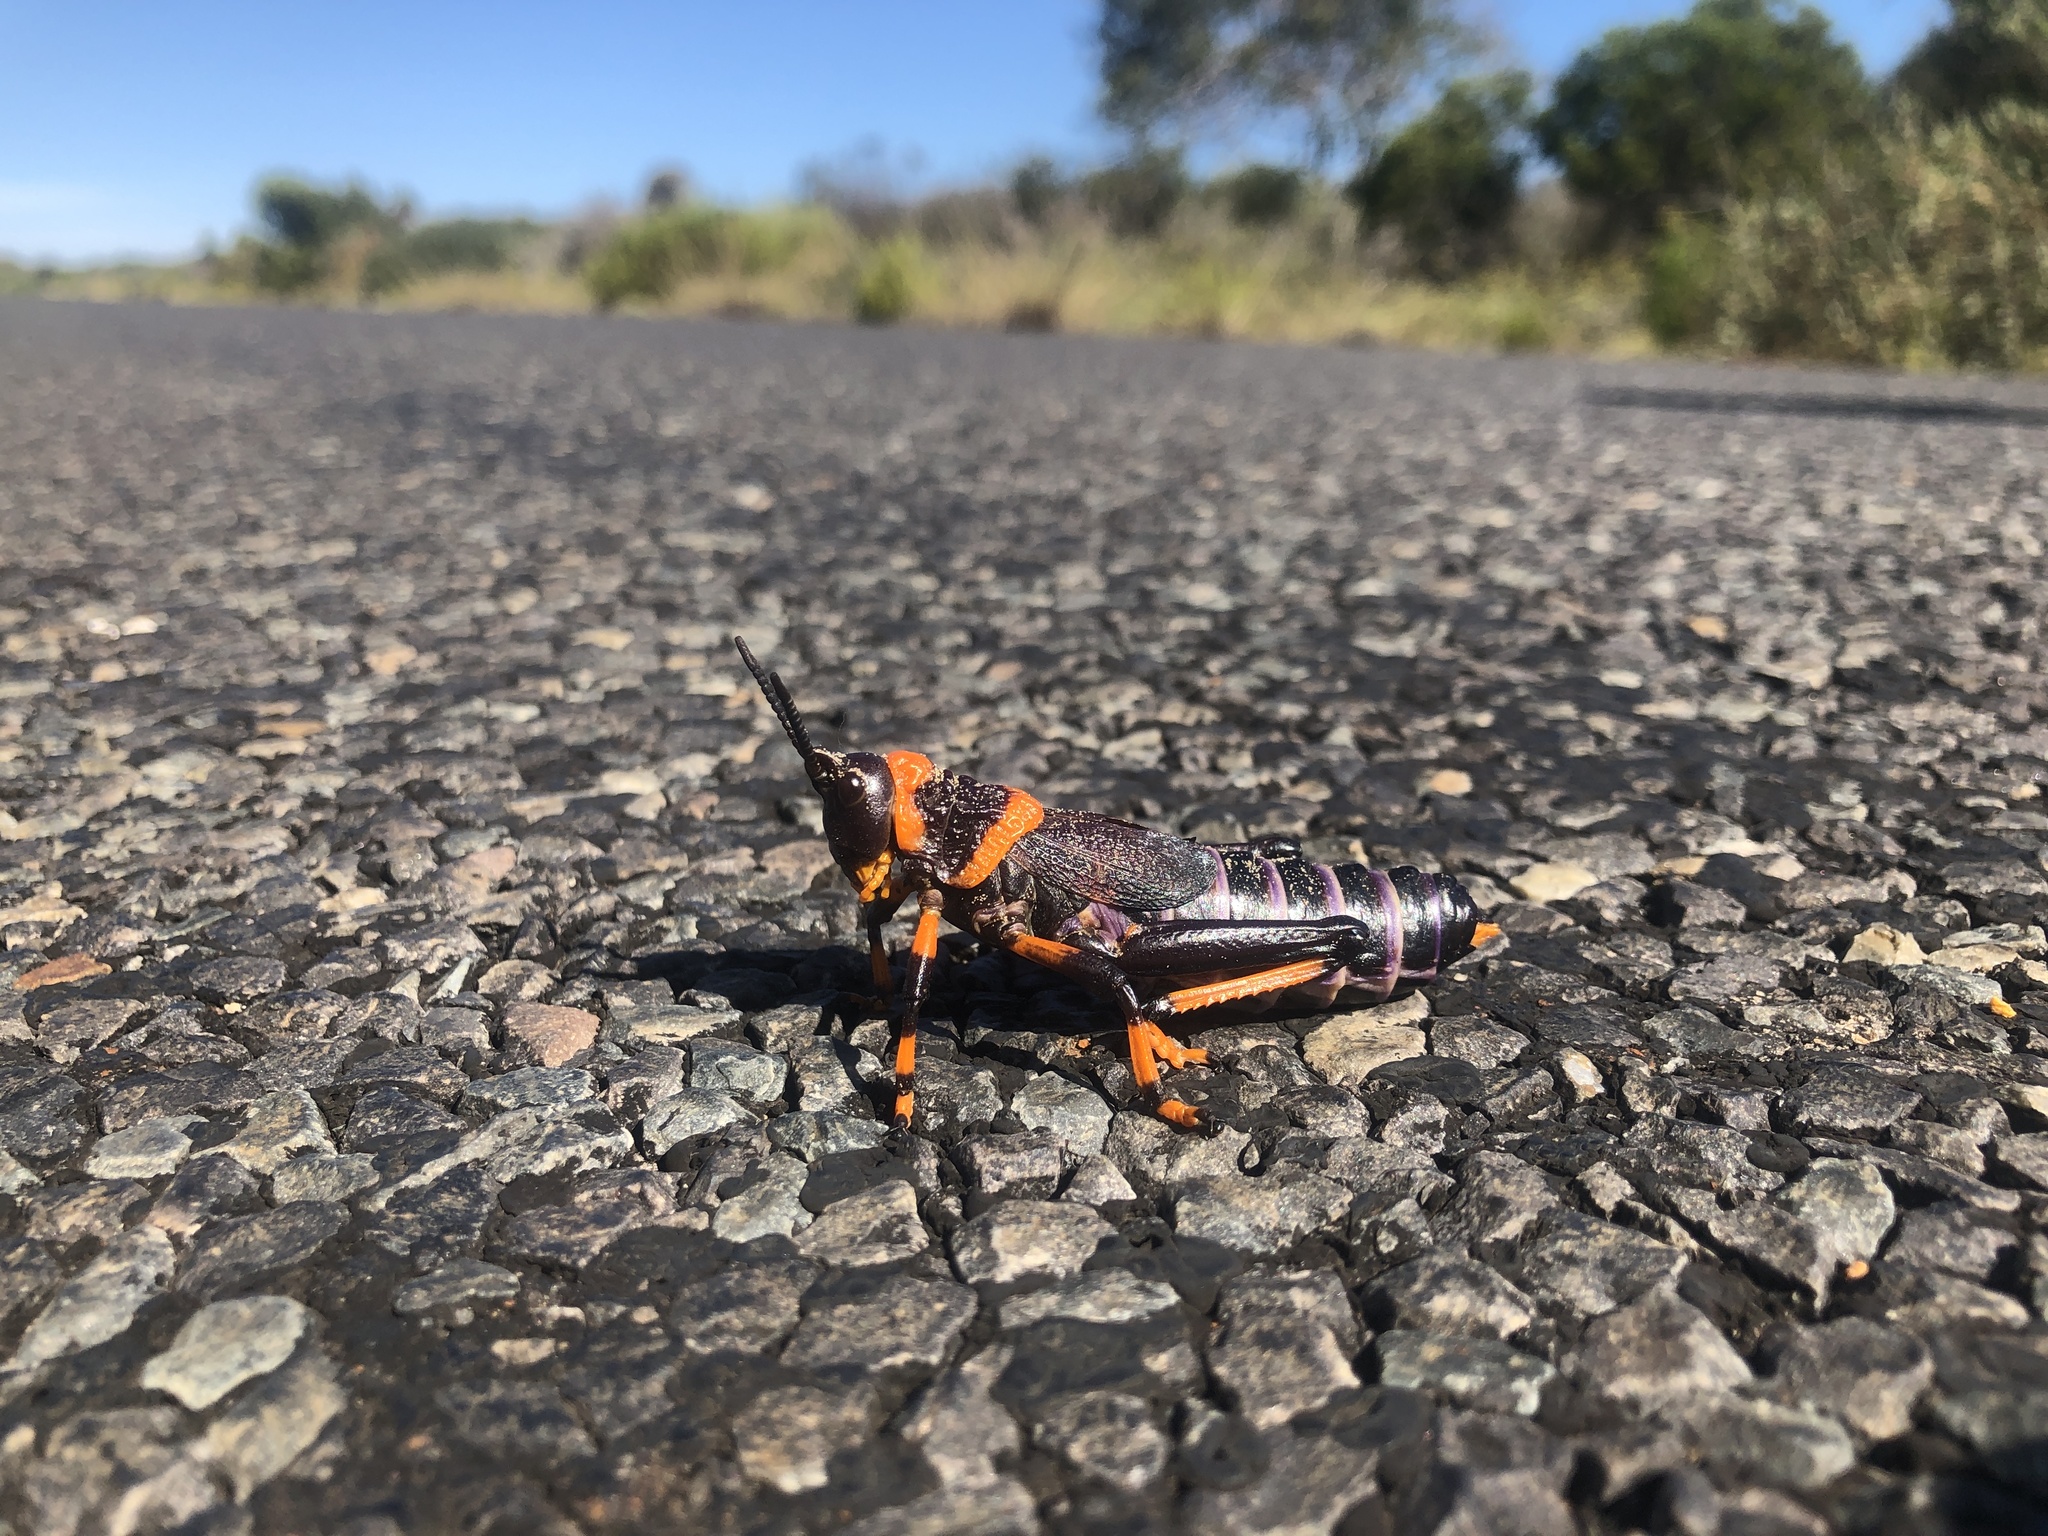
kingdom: Animalia
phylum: Arthropoda
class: Insecta
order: Orthoptera
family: Pyrgomorphidae
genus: Dictyophorus
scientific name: Dictyophorus spumans
